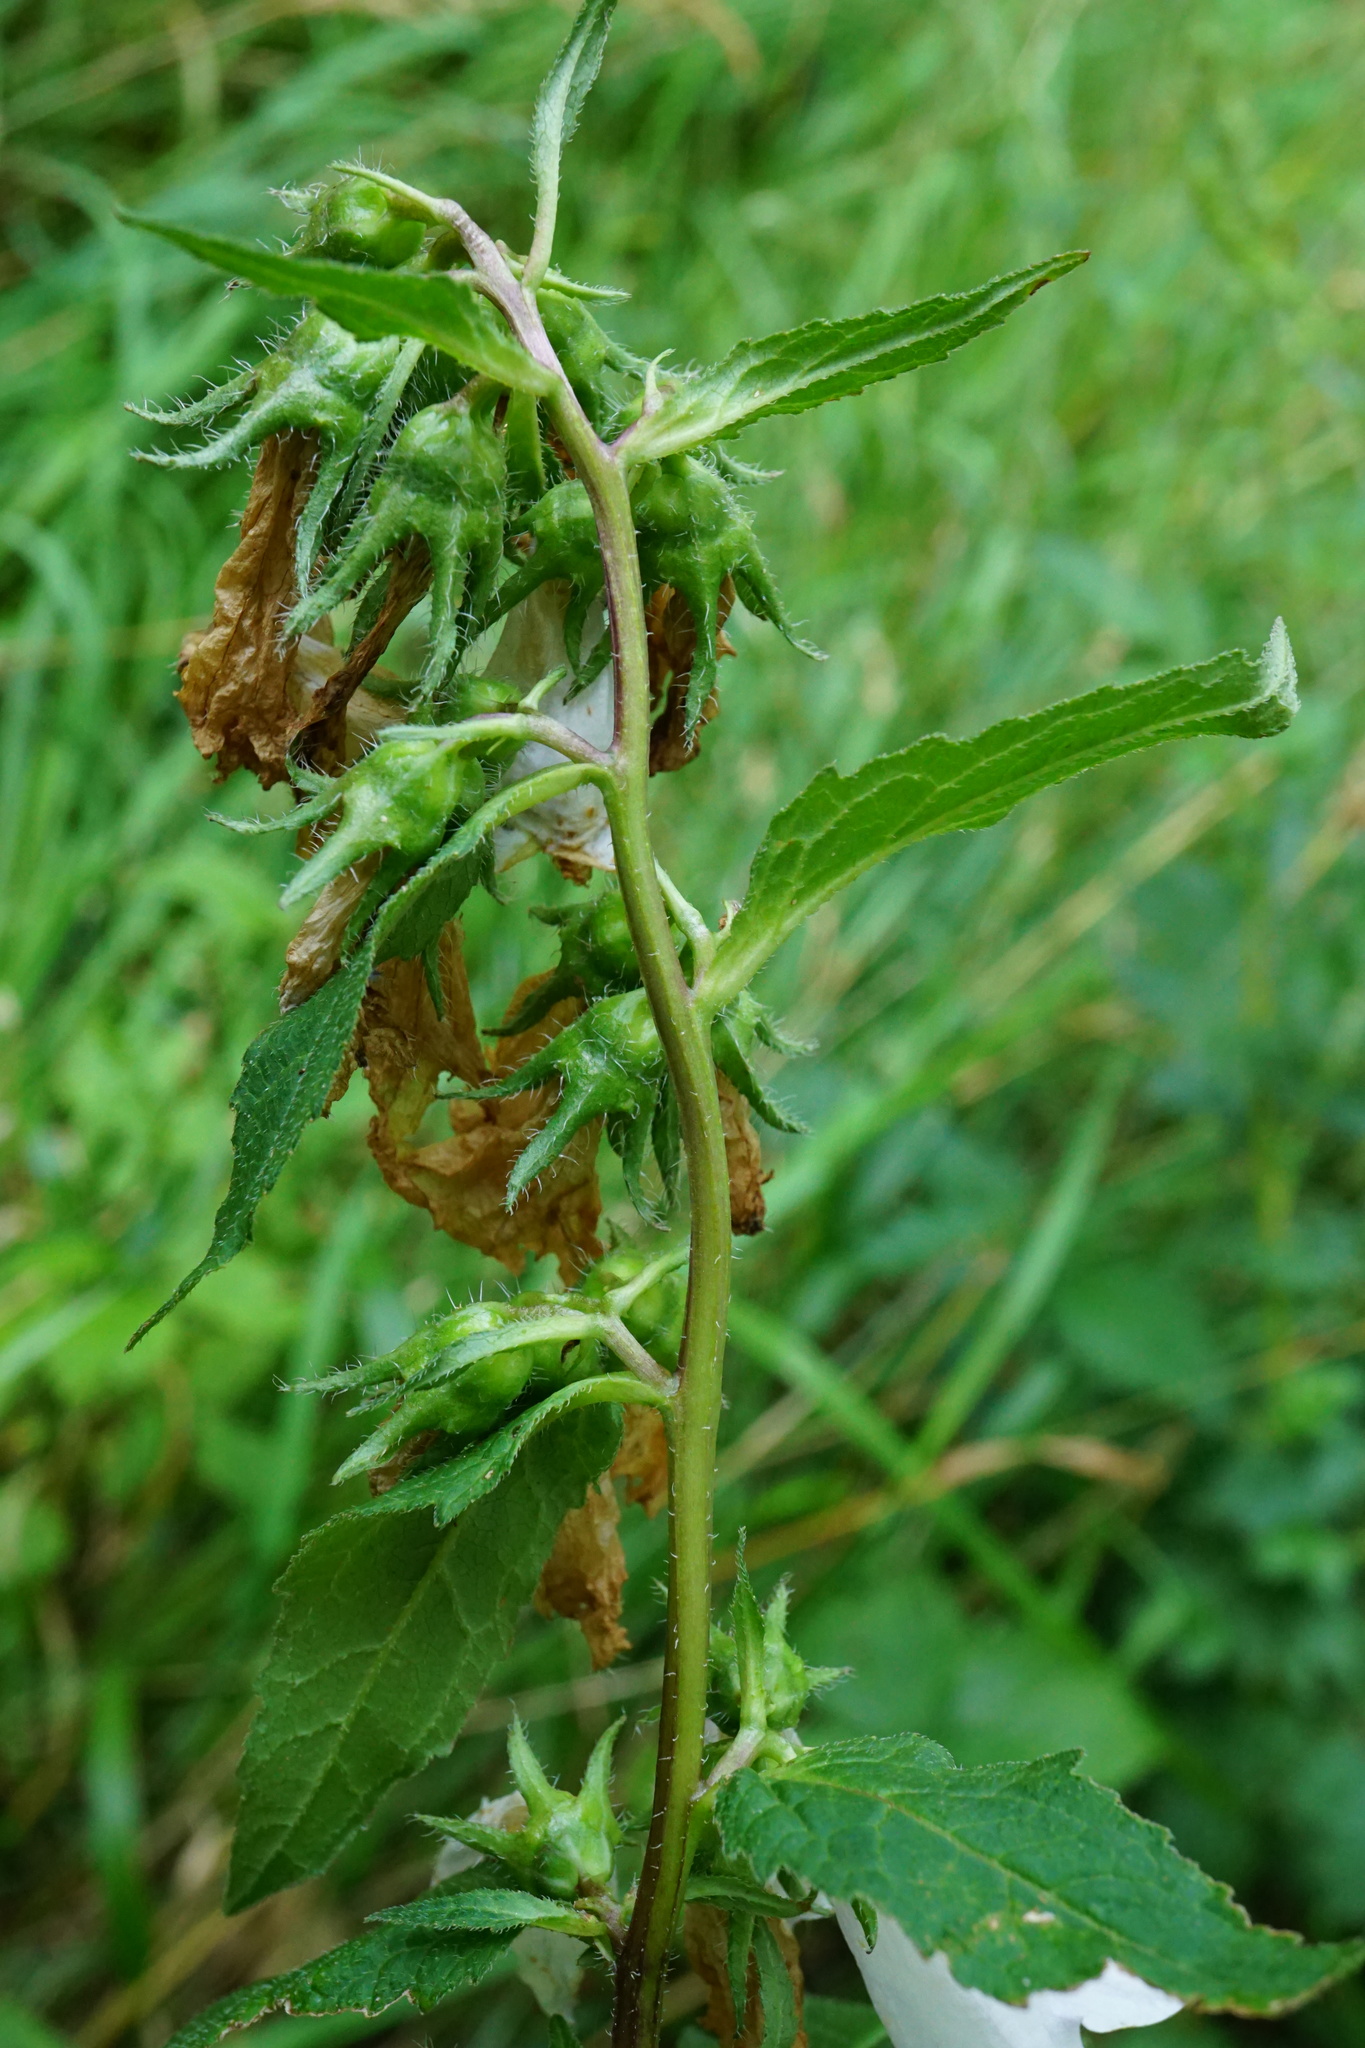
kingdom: Plantae
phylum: Tracheophyta
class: Magnoliopsida
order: Asterales
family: Campanulaceae
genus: Campanula
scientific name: Campanula trachelium
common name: Nettle-leaved bellflower
